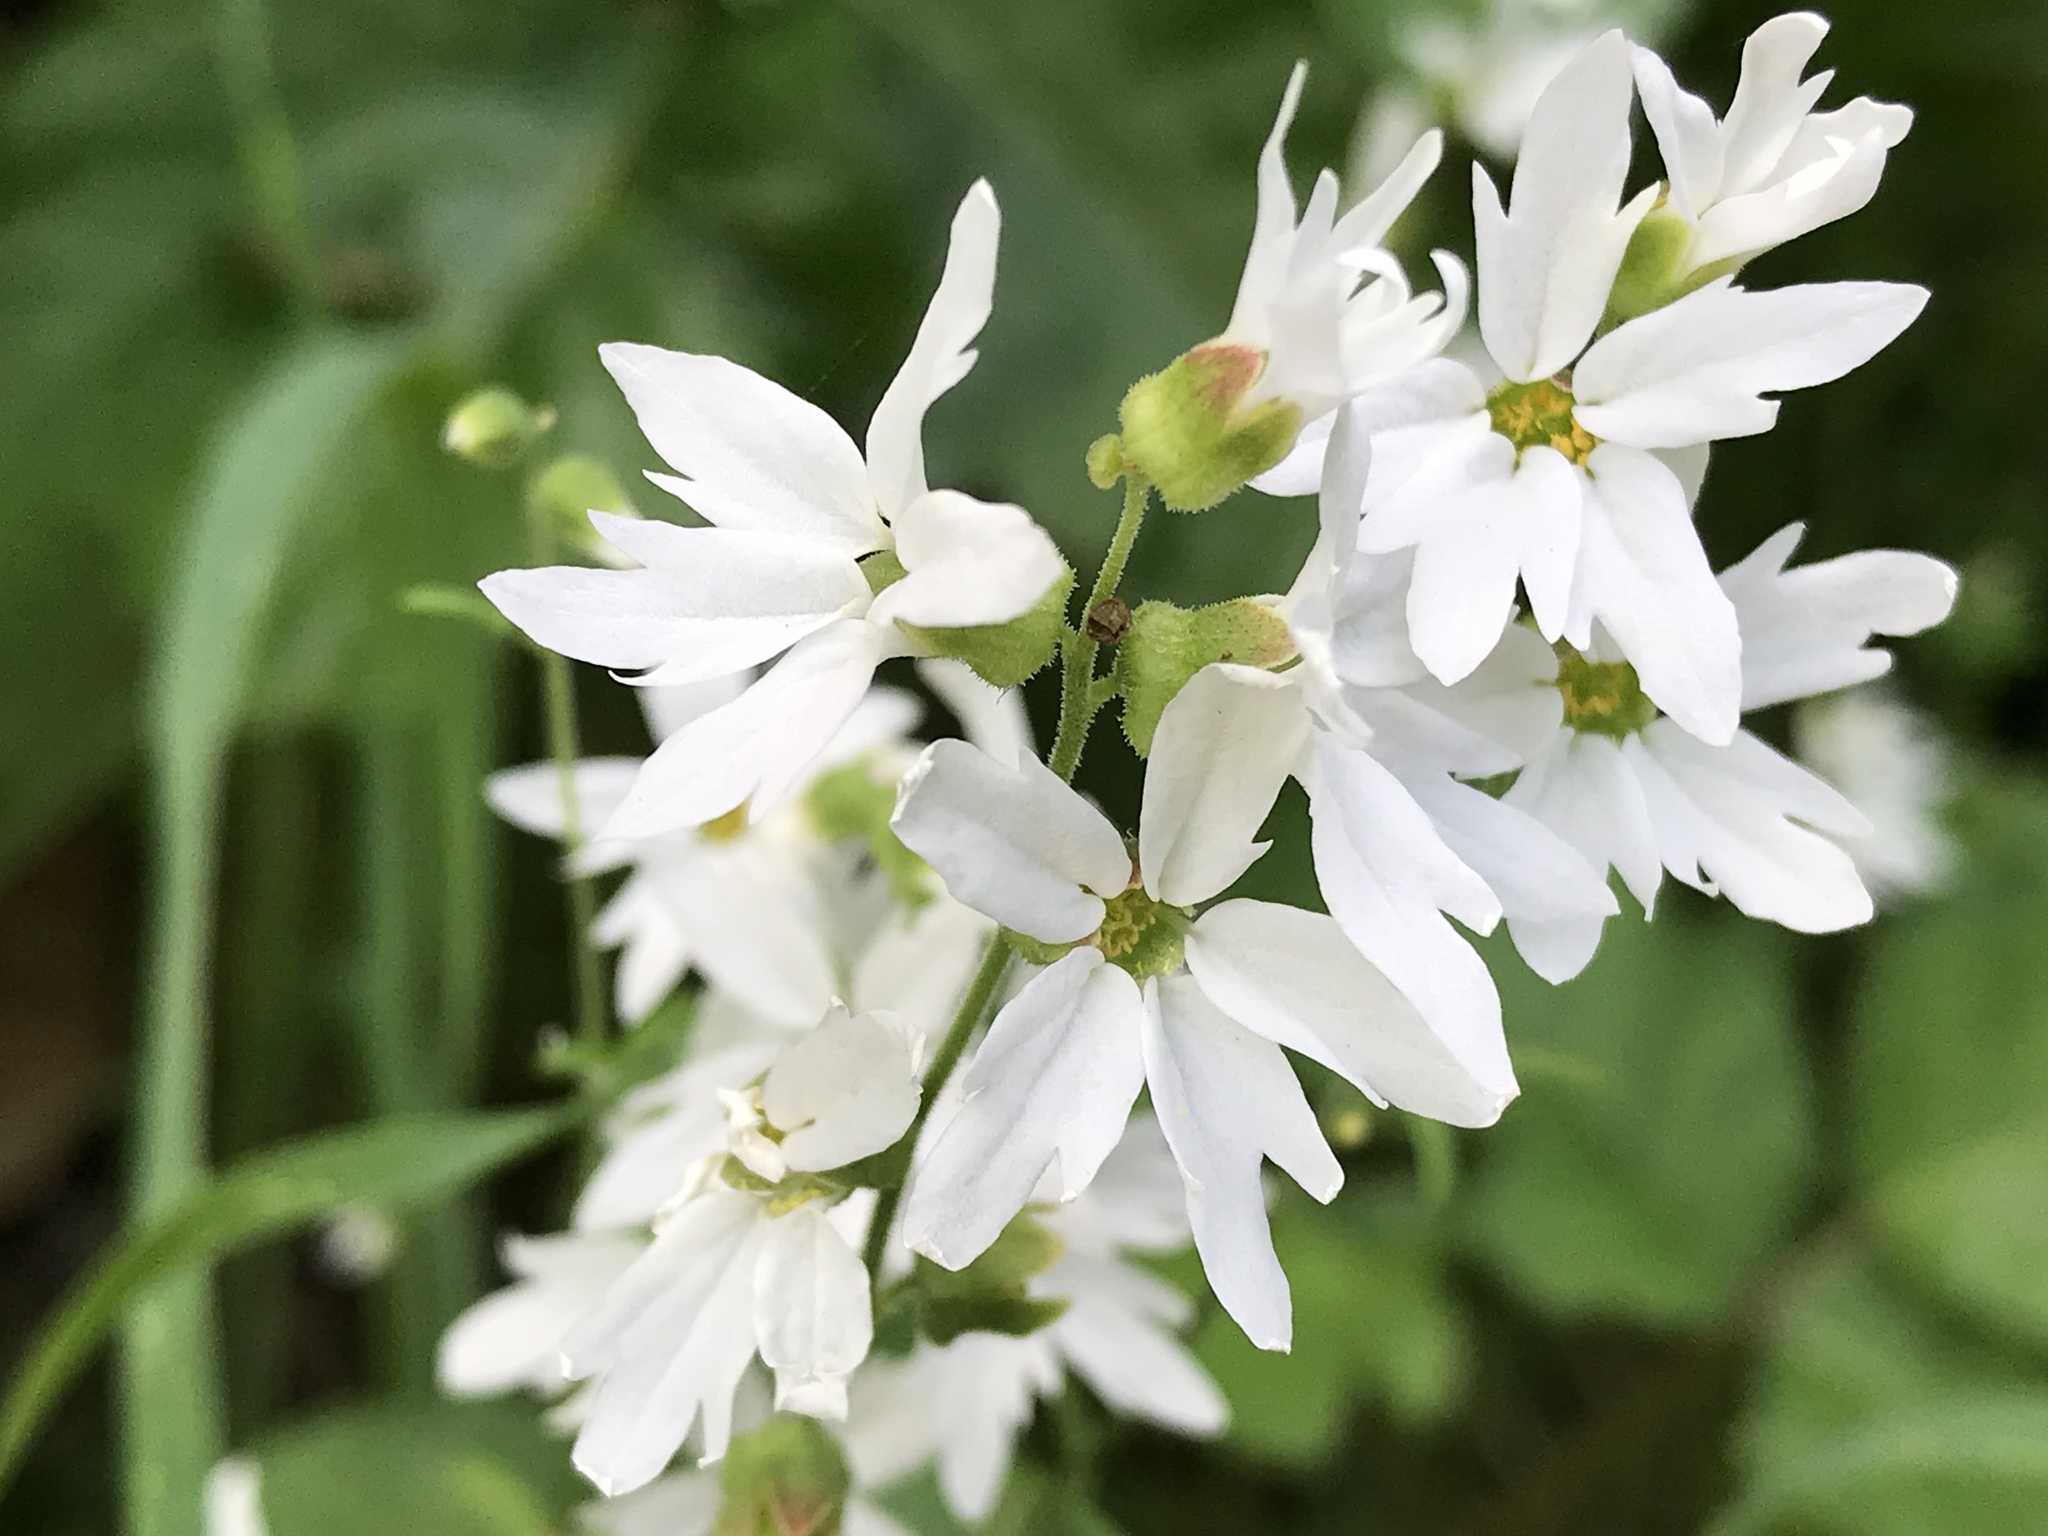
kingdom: Plantae
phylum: Tracheophyta
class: Magnoliopsida
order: Saxifragales
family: Saxifragaceae
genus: Lithophragma
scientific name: Lithophragma heterophyllum
